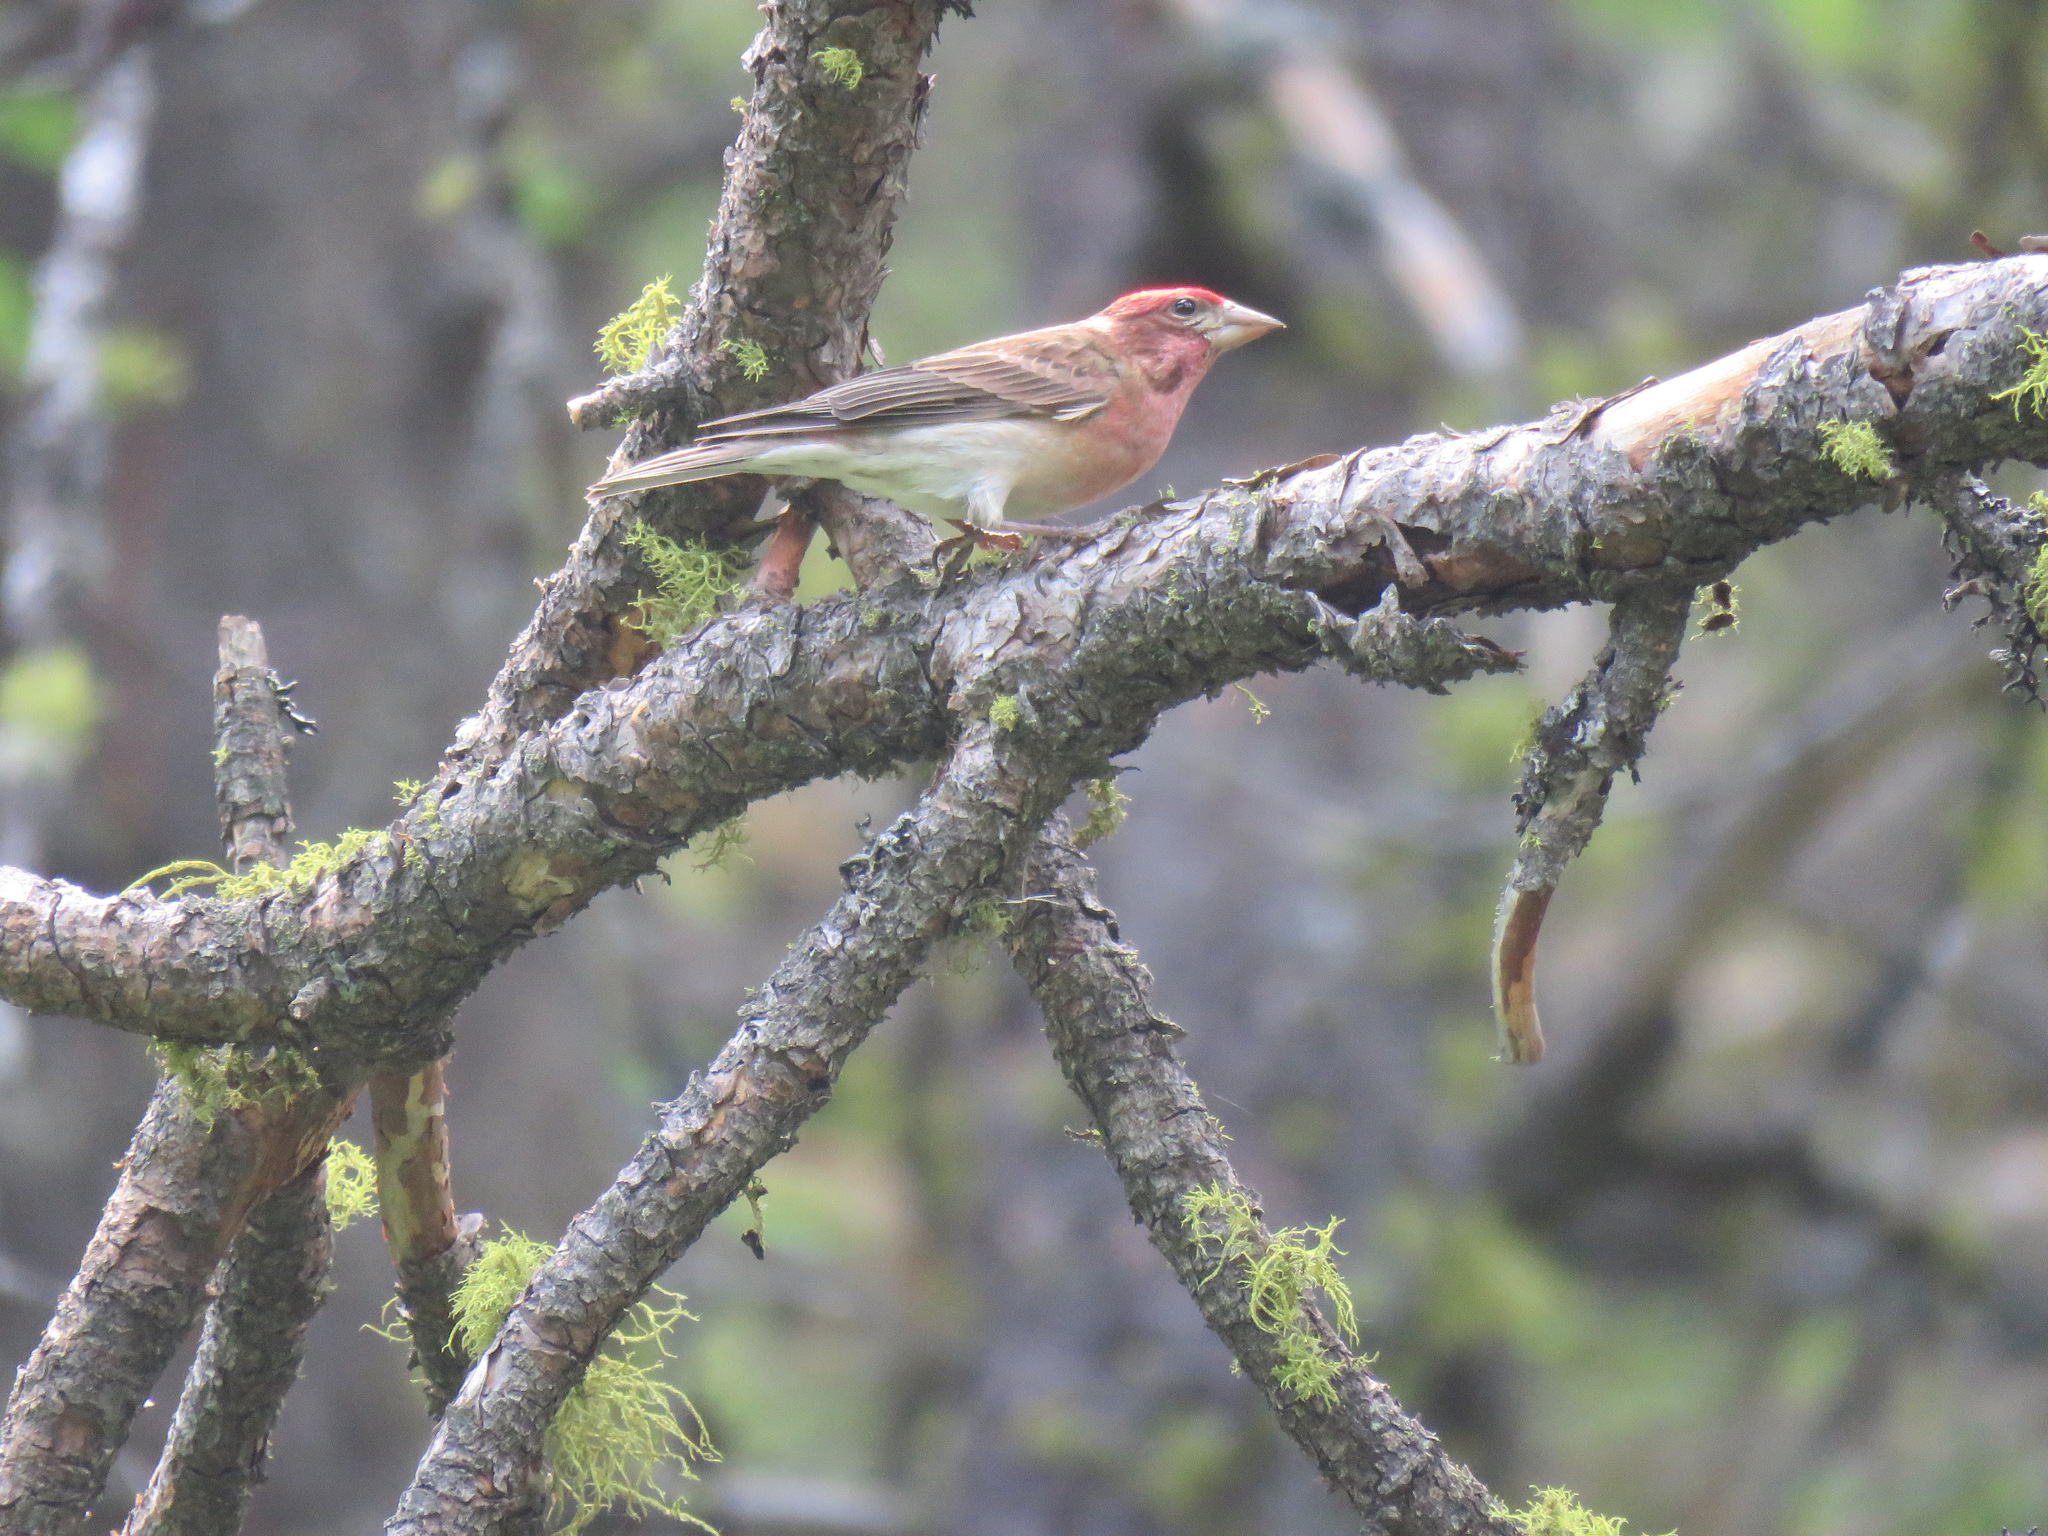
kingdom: Animalia
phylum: Chordata
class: Aves
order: Passeriformes
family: Fringillidae
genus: Haemorhous
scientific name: Haemorhous cassinii
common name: Cassin's finch
